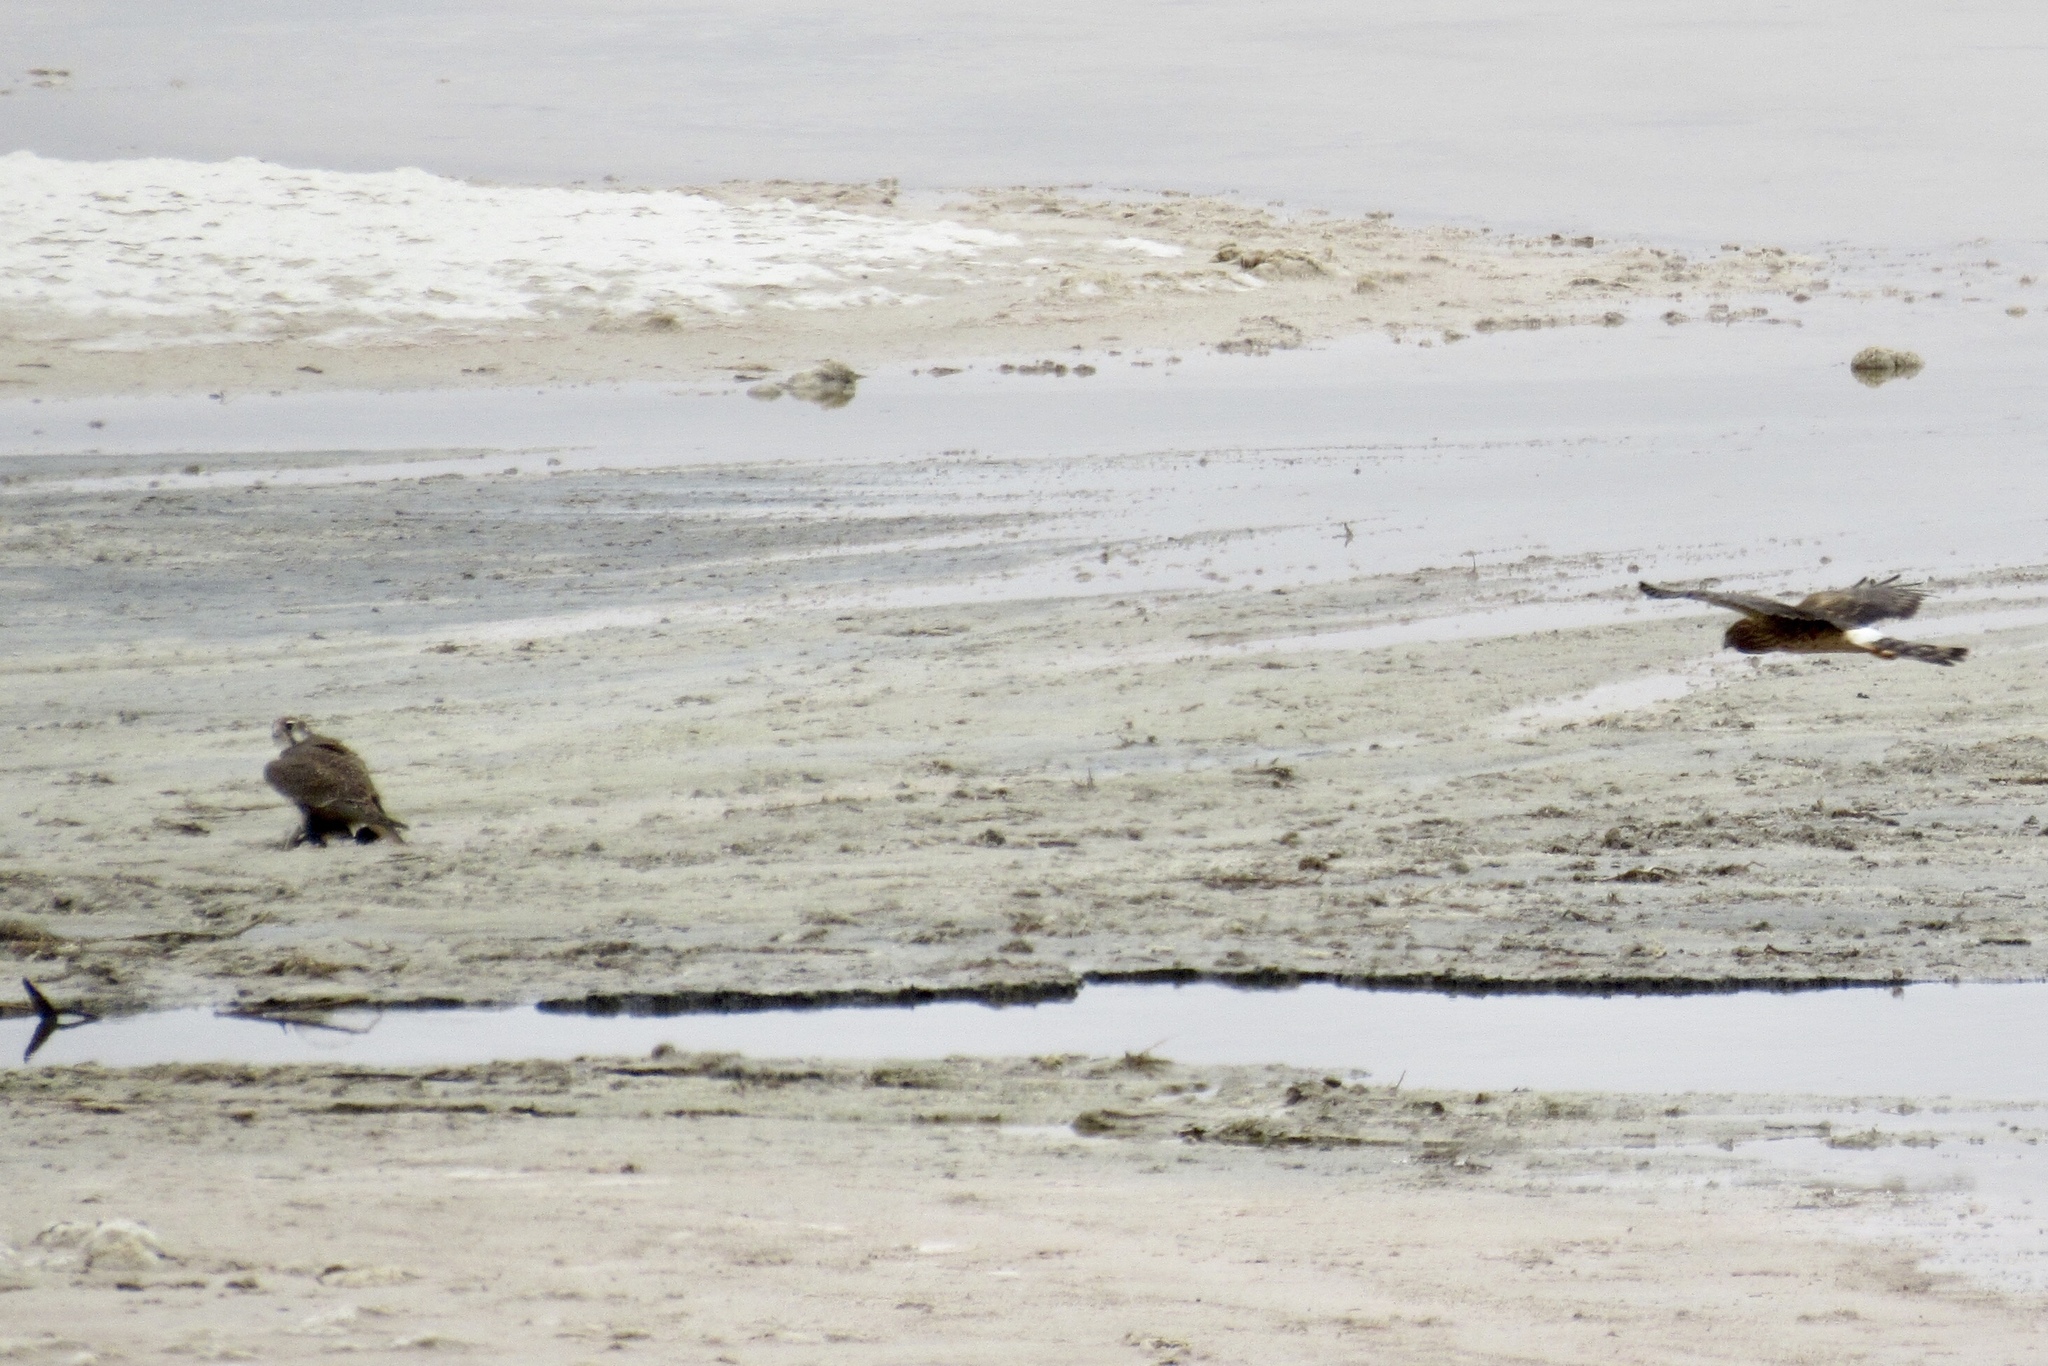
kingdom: Animalia
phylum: Chordata
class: Aves
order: Falconiformes
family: Falconidae
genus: Falco
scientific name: Falco mexicanus
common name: Prairie falcon
